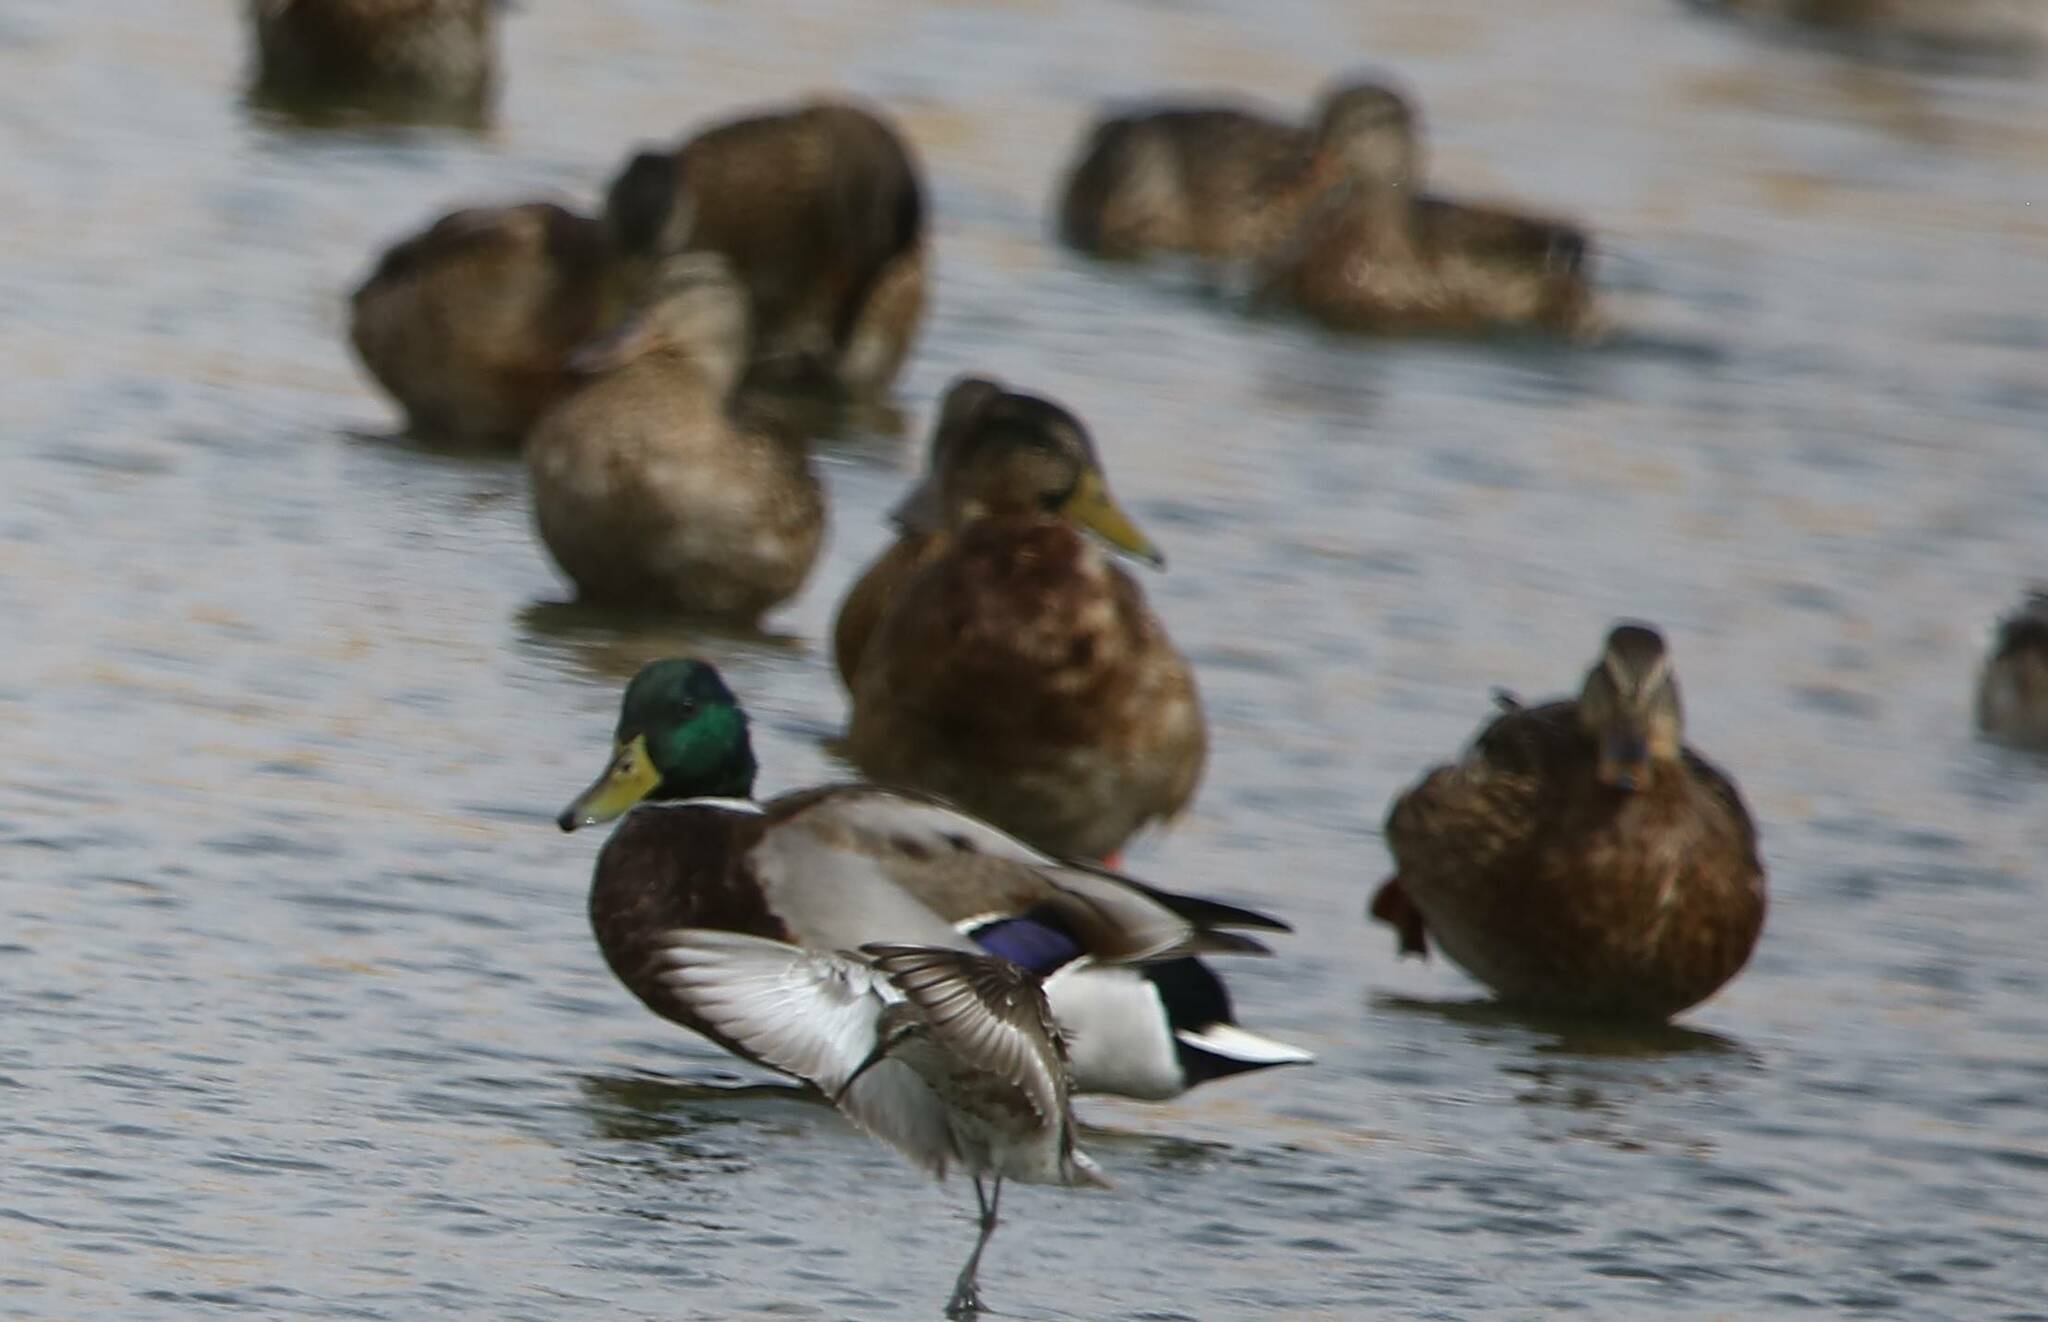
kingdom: Animalia
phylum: Chordata
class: Aves
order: Anseriformes
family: Anatidae
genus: Anas
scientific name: Anas platyrhynchos
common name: Mallard
